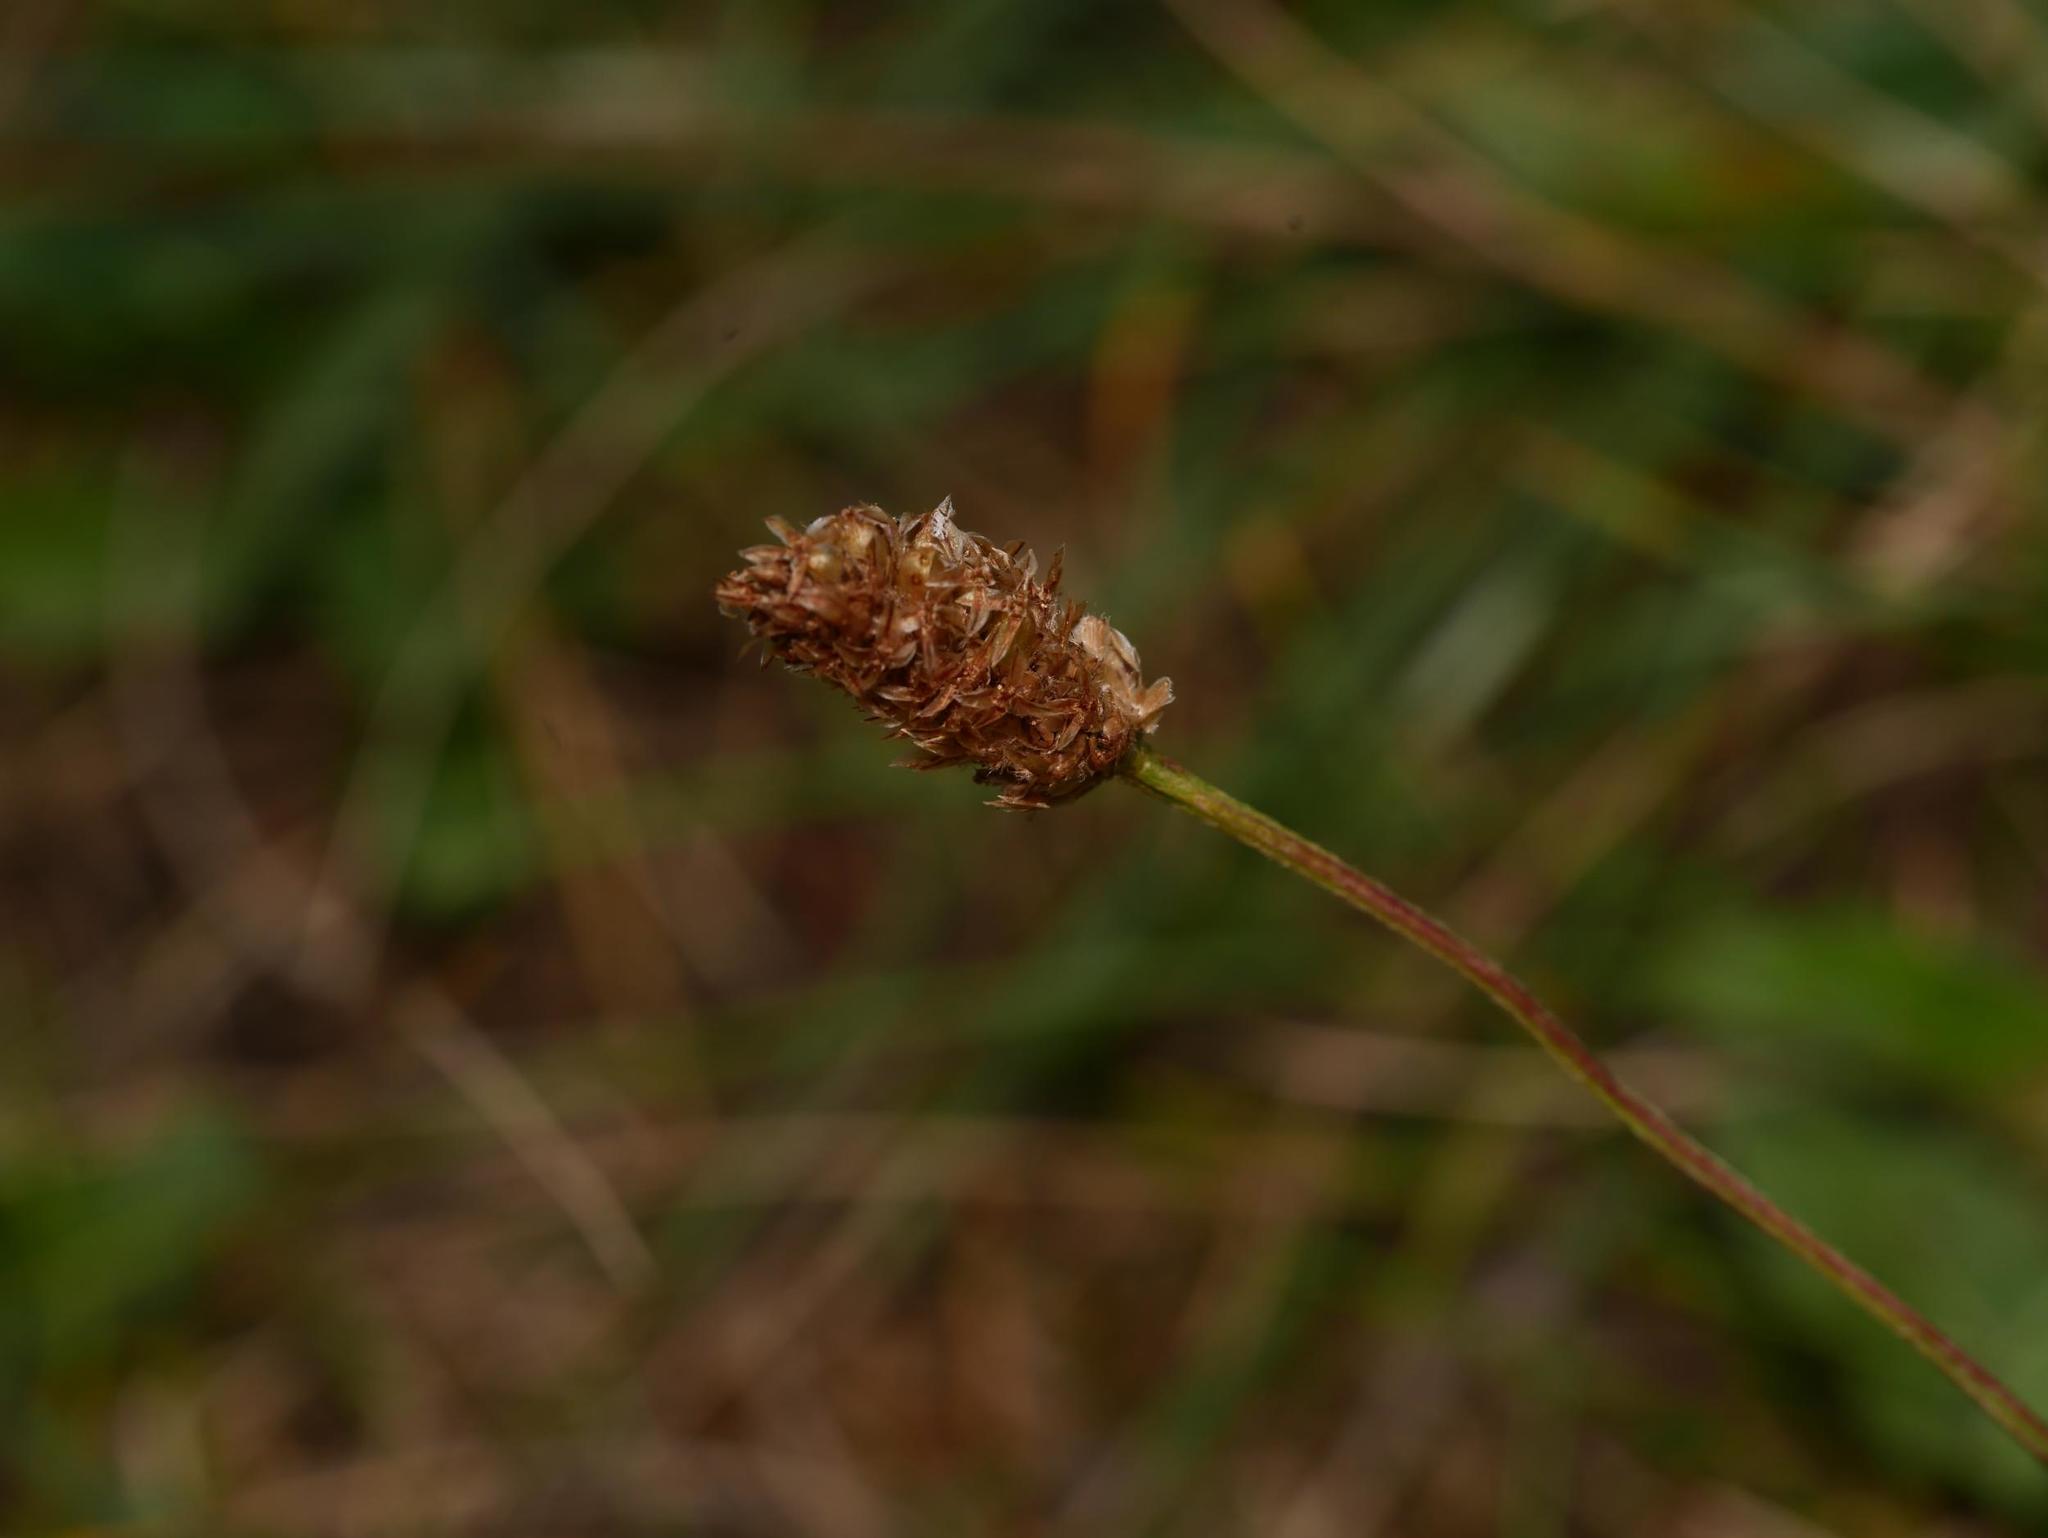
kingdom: Plantae
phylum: Tracheophyta
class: Magnoliopsida
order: Lamiales
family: Plantaginaceae
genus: Plantago
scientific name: Plantago lanceolata
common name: Ribwort plantain
